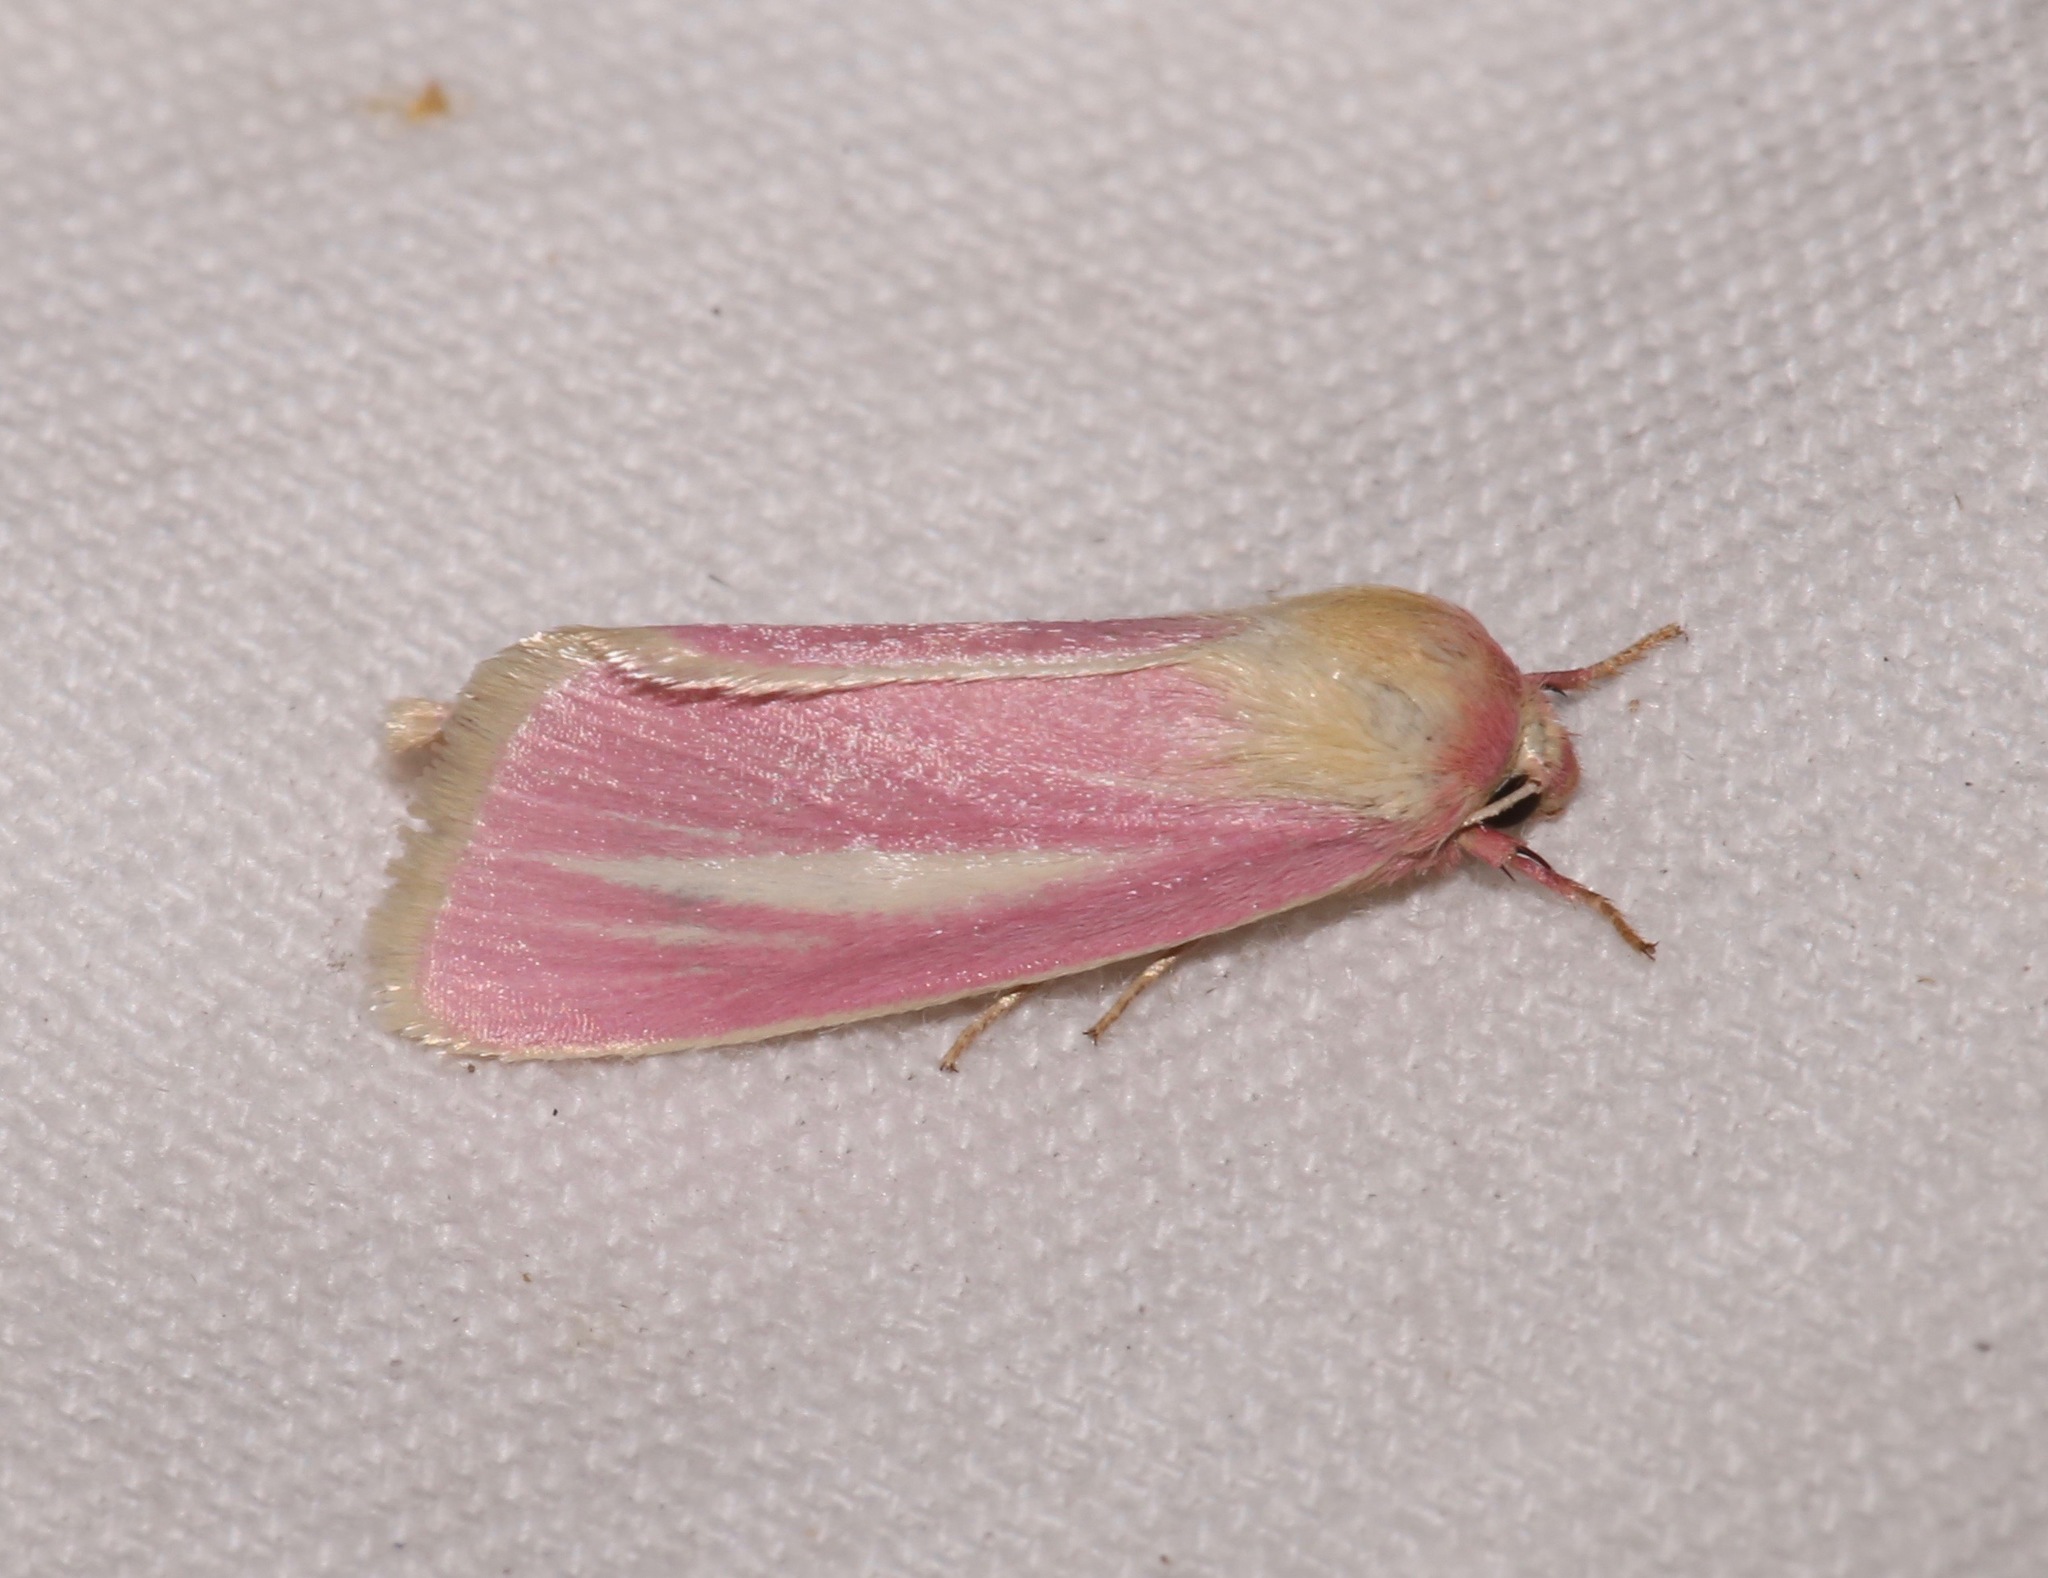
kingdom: Animalia
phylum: Arthropoda
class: Insecta
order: Lepidoptera
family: Noctuidae
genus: Heliocheilus
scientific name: Heliocheilus julia
